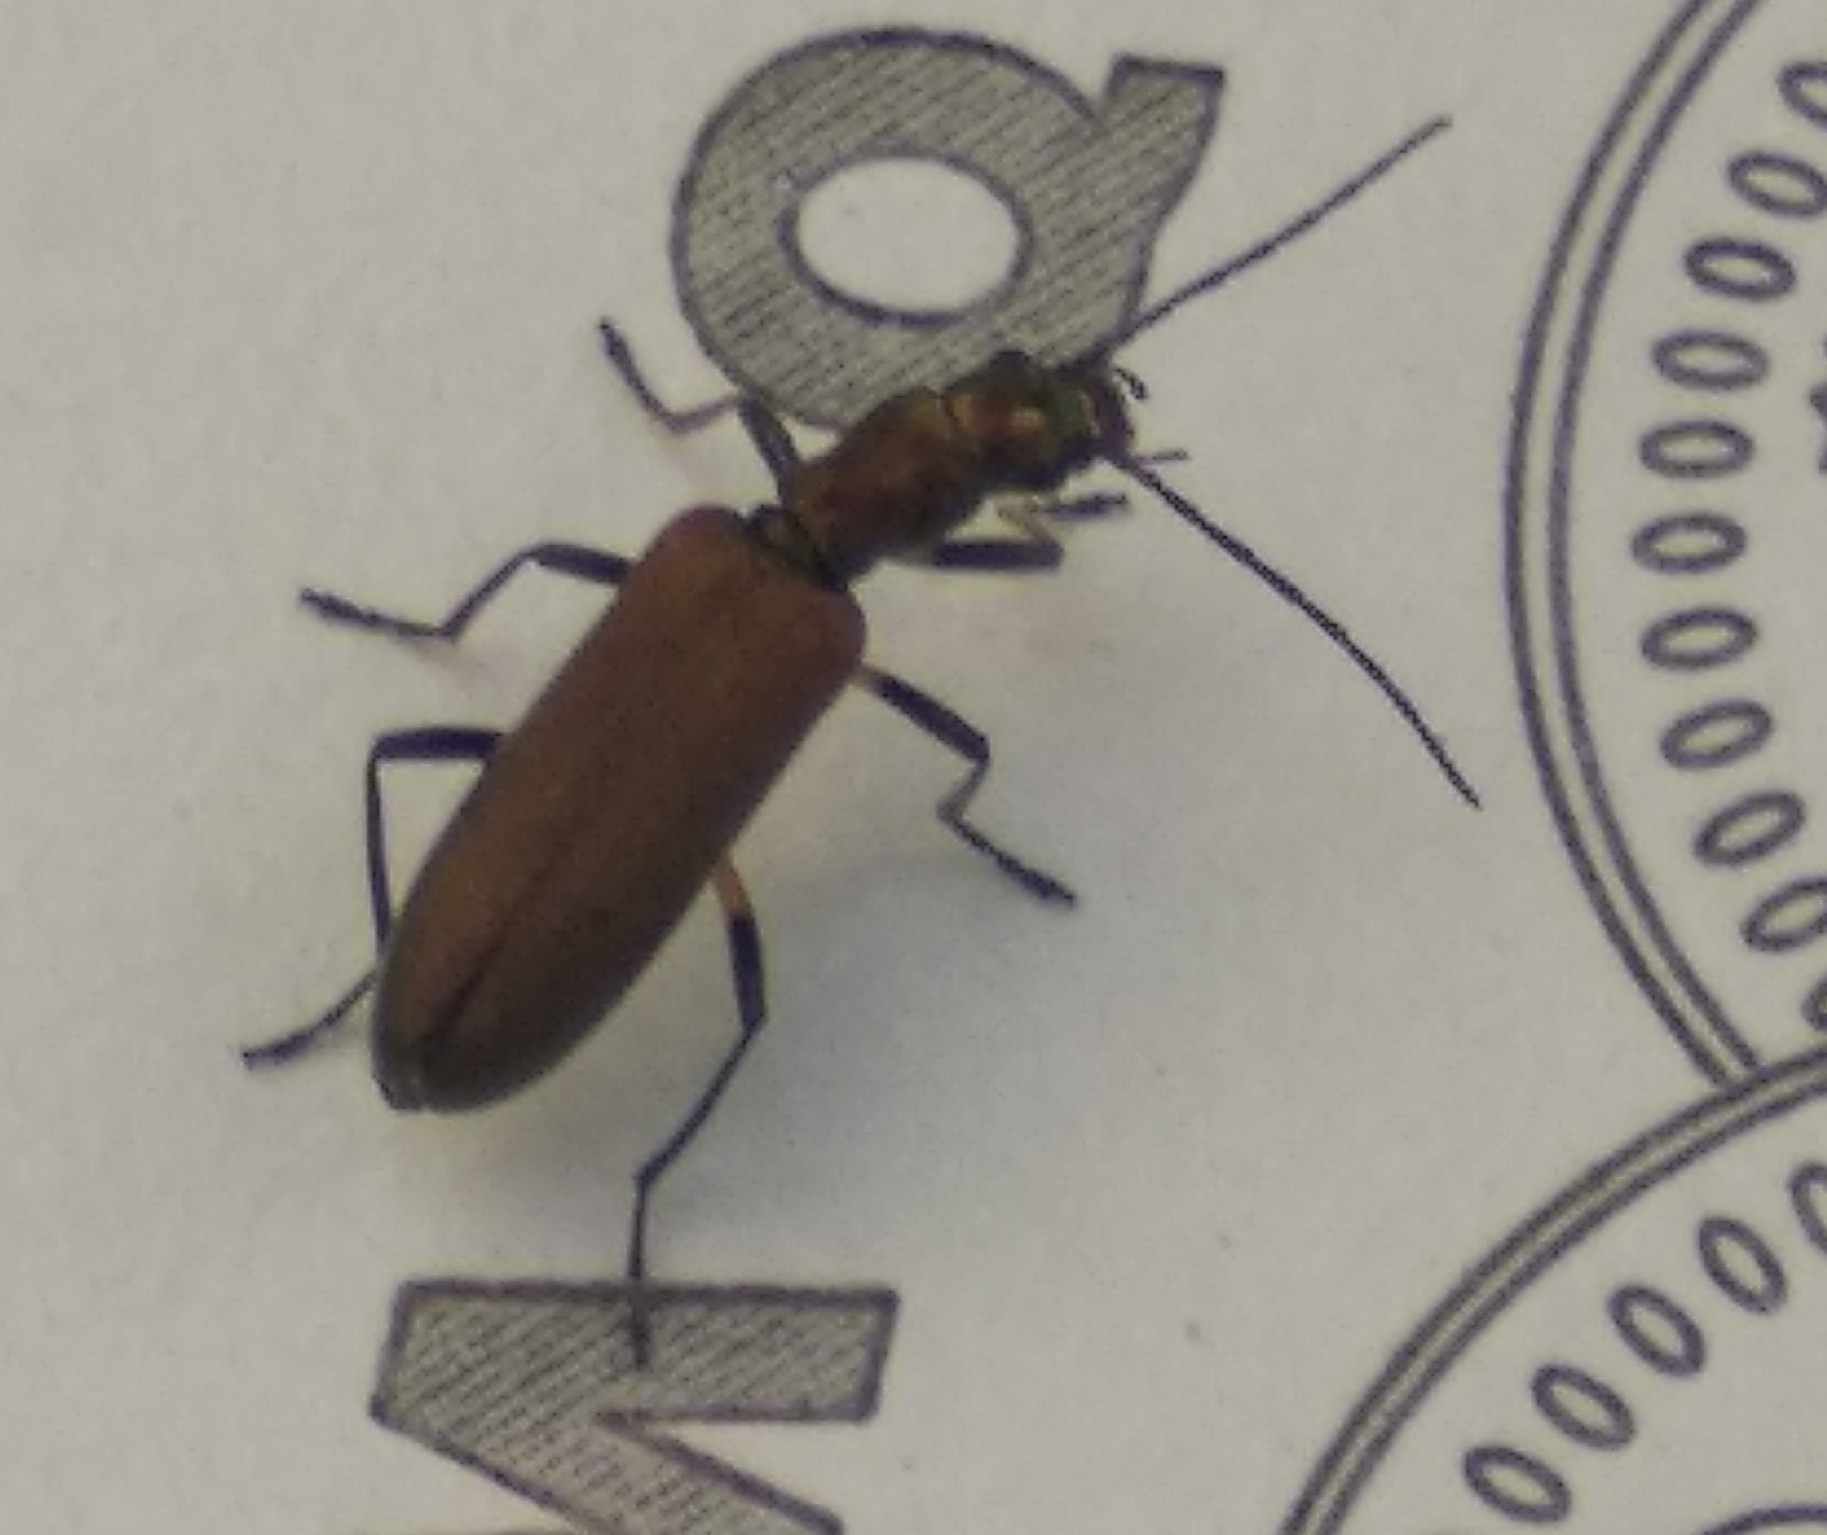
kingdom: Animalia
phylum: Arthropoda
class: Insecta
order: Coleoptera
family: Oedemeridae
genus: Chrysanthia
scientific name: Chrysanthia hamata
